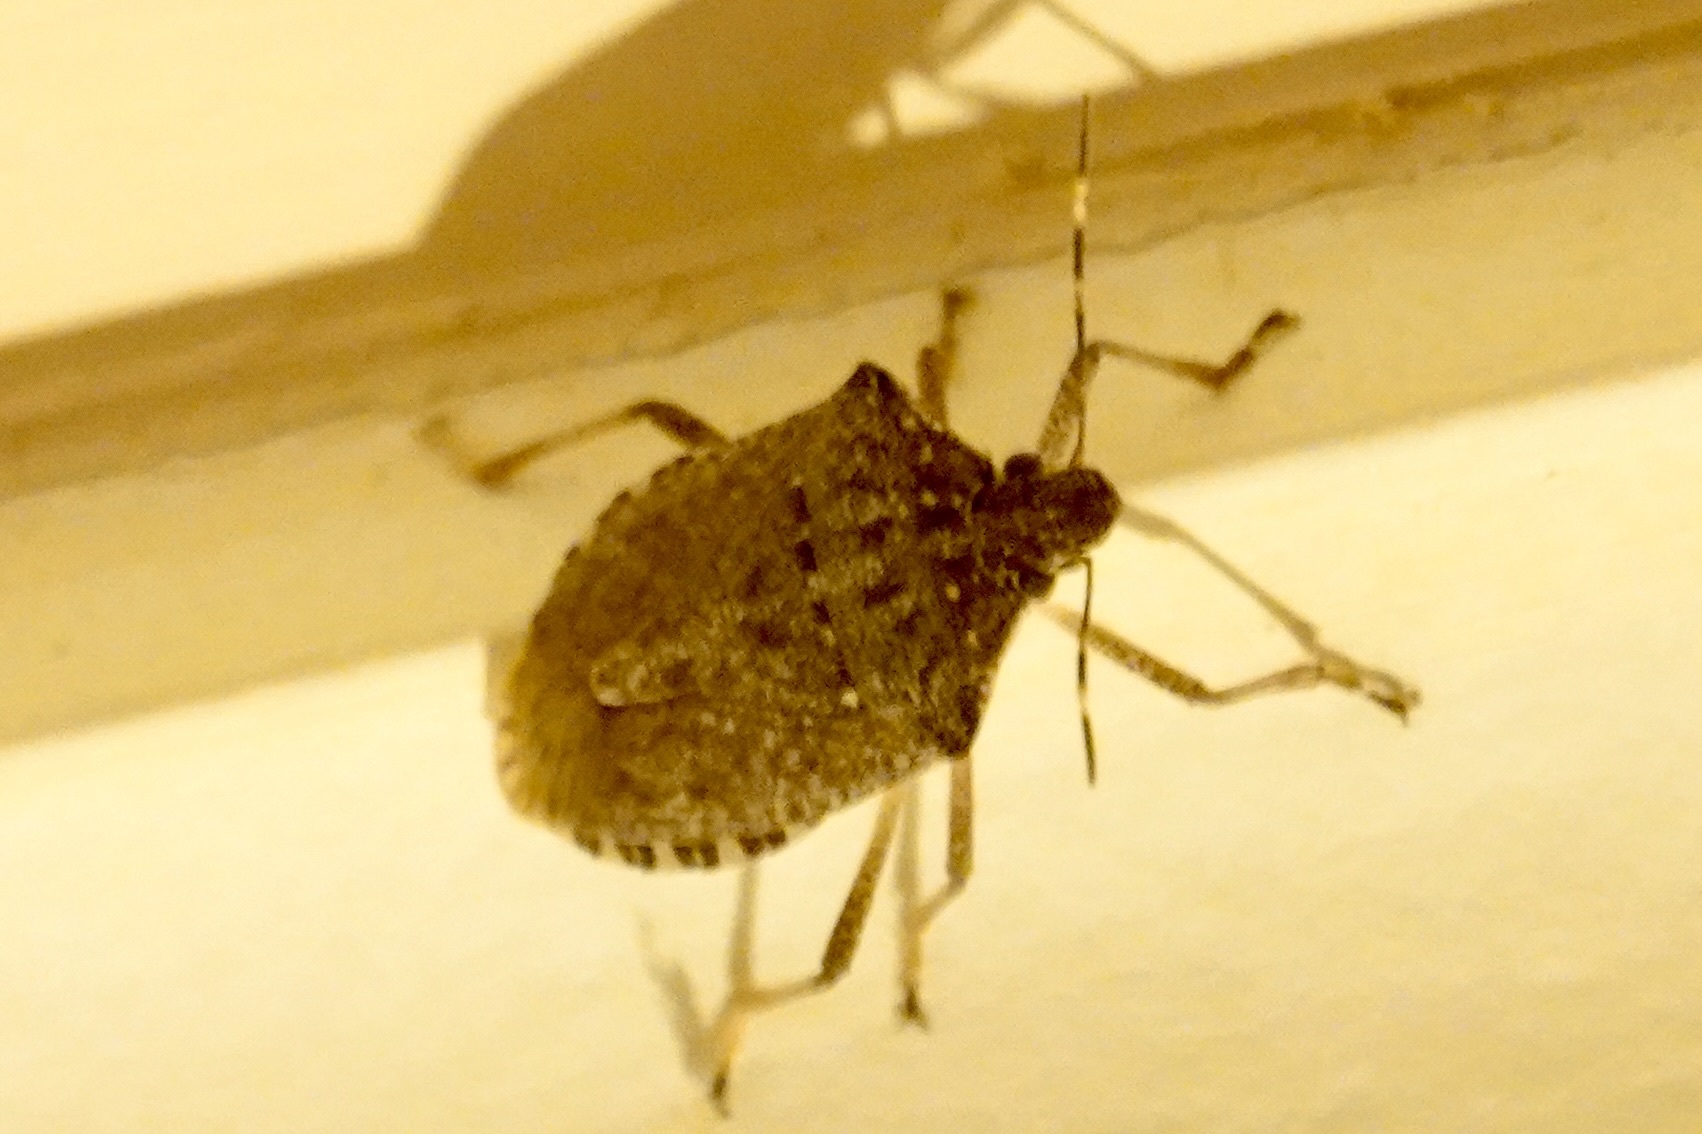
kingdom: Animalia
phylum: Arthropoda
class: Insecta
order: Hemiptera
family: Pentatomidae
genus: Halyomorpha
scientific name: Halyomorpha halys
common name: Brown marmorated stink bug
